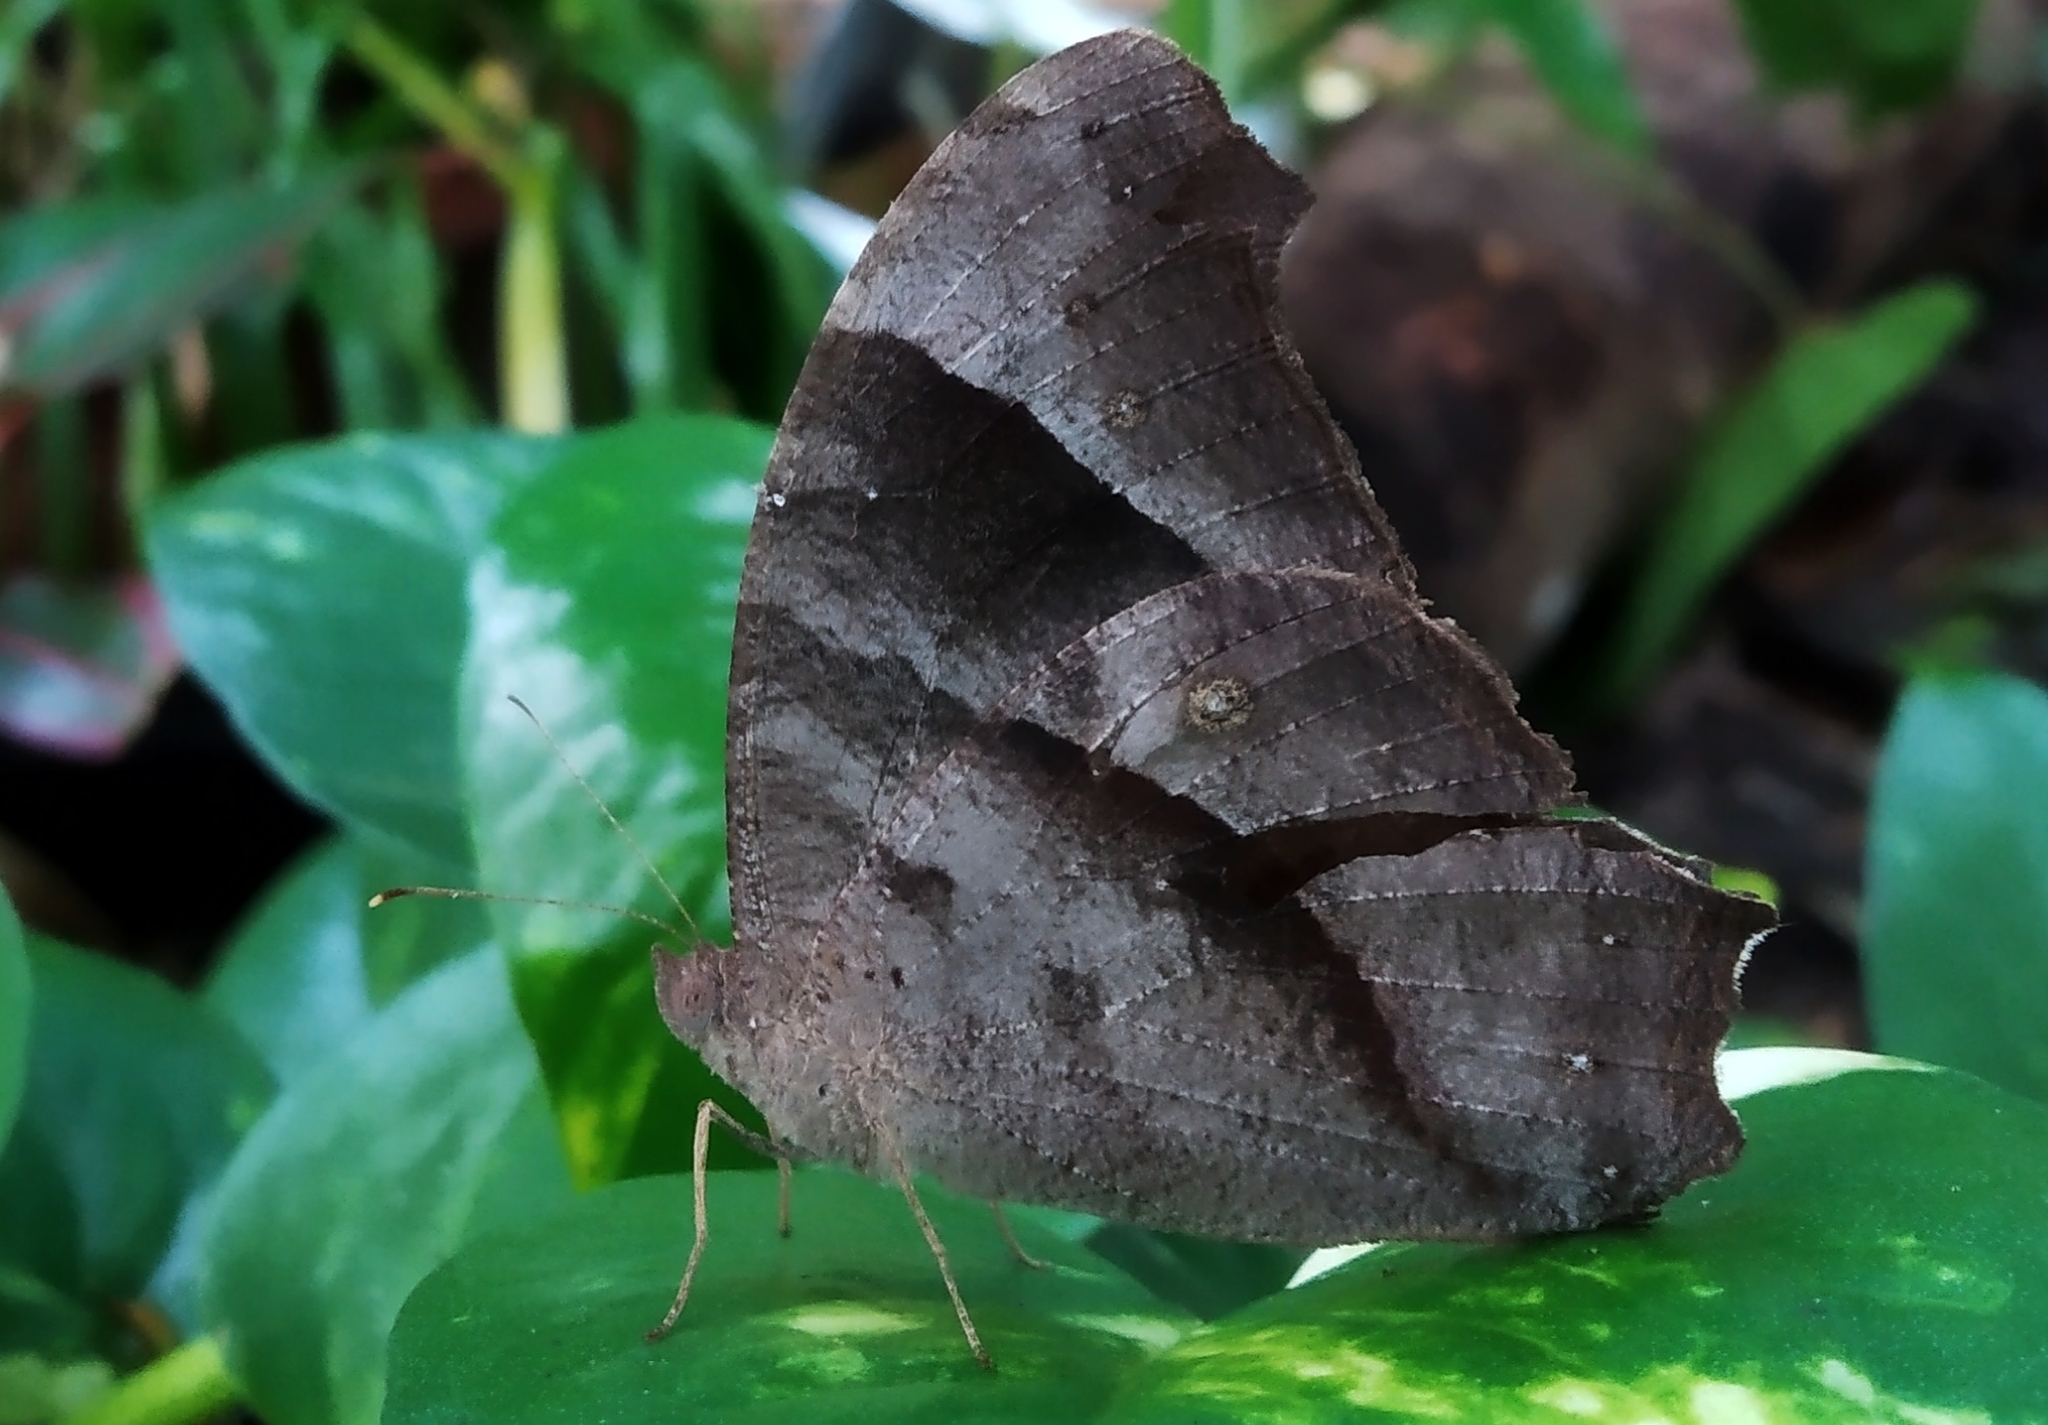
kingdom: Animalia
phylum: Arthropoda
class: Insecta
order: Lepidoptera
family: Nymphalidae
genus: Melanitis
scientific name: Melanitis leda
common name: Twilight brown
